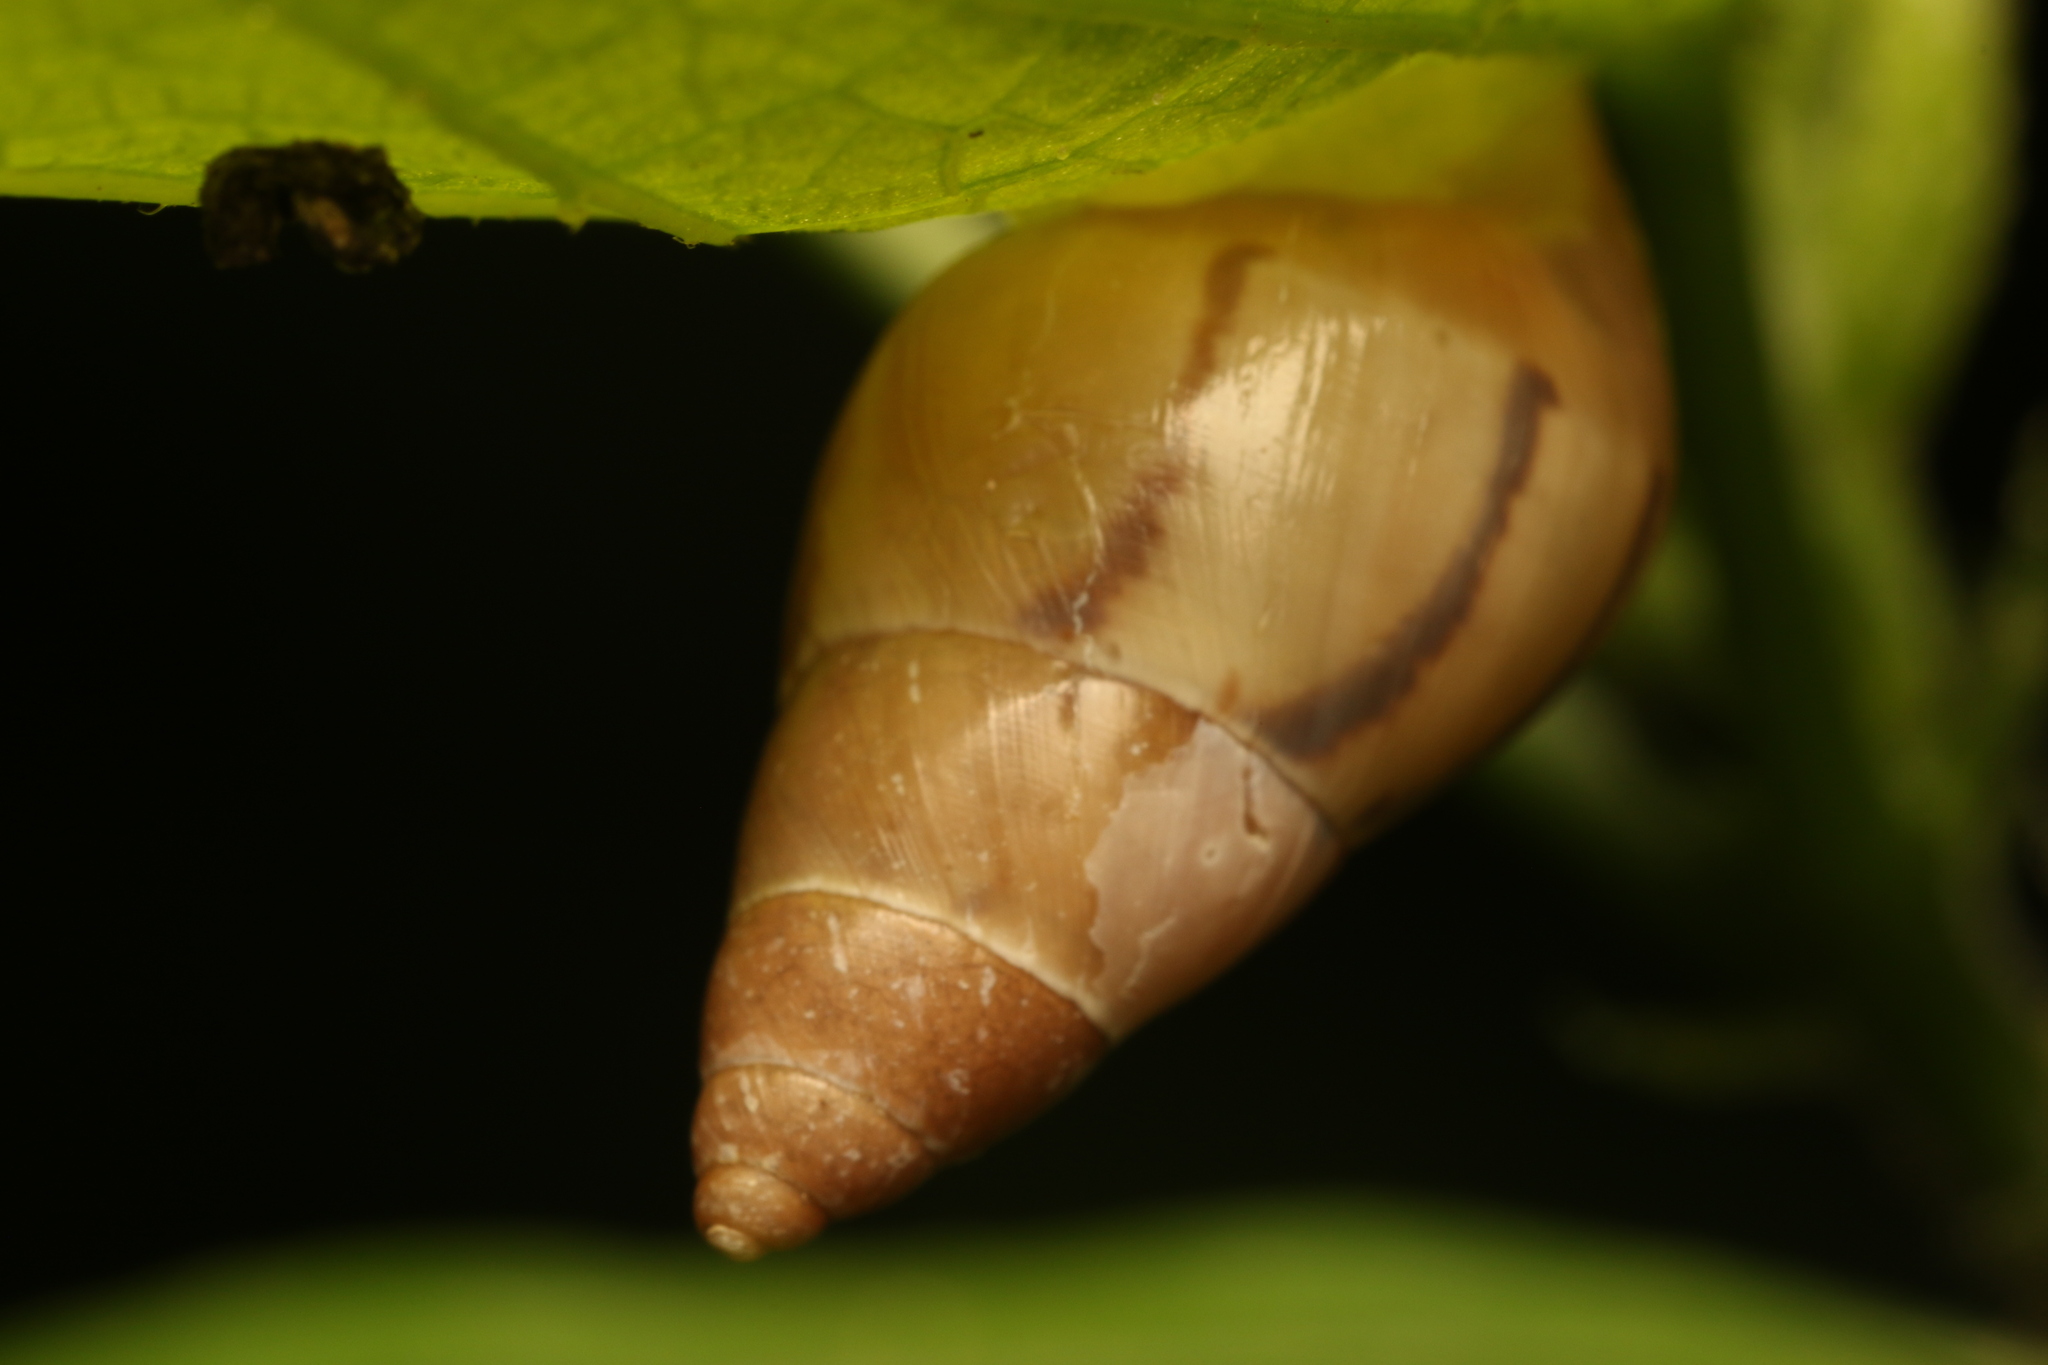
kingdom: Animalia
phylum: Mollusca
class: Gastropoda
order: Stylommatophora
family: Bulimulidae
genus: Drymaeus
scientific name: Drymaeus semistriatus
